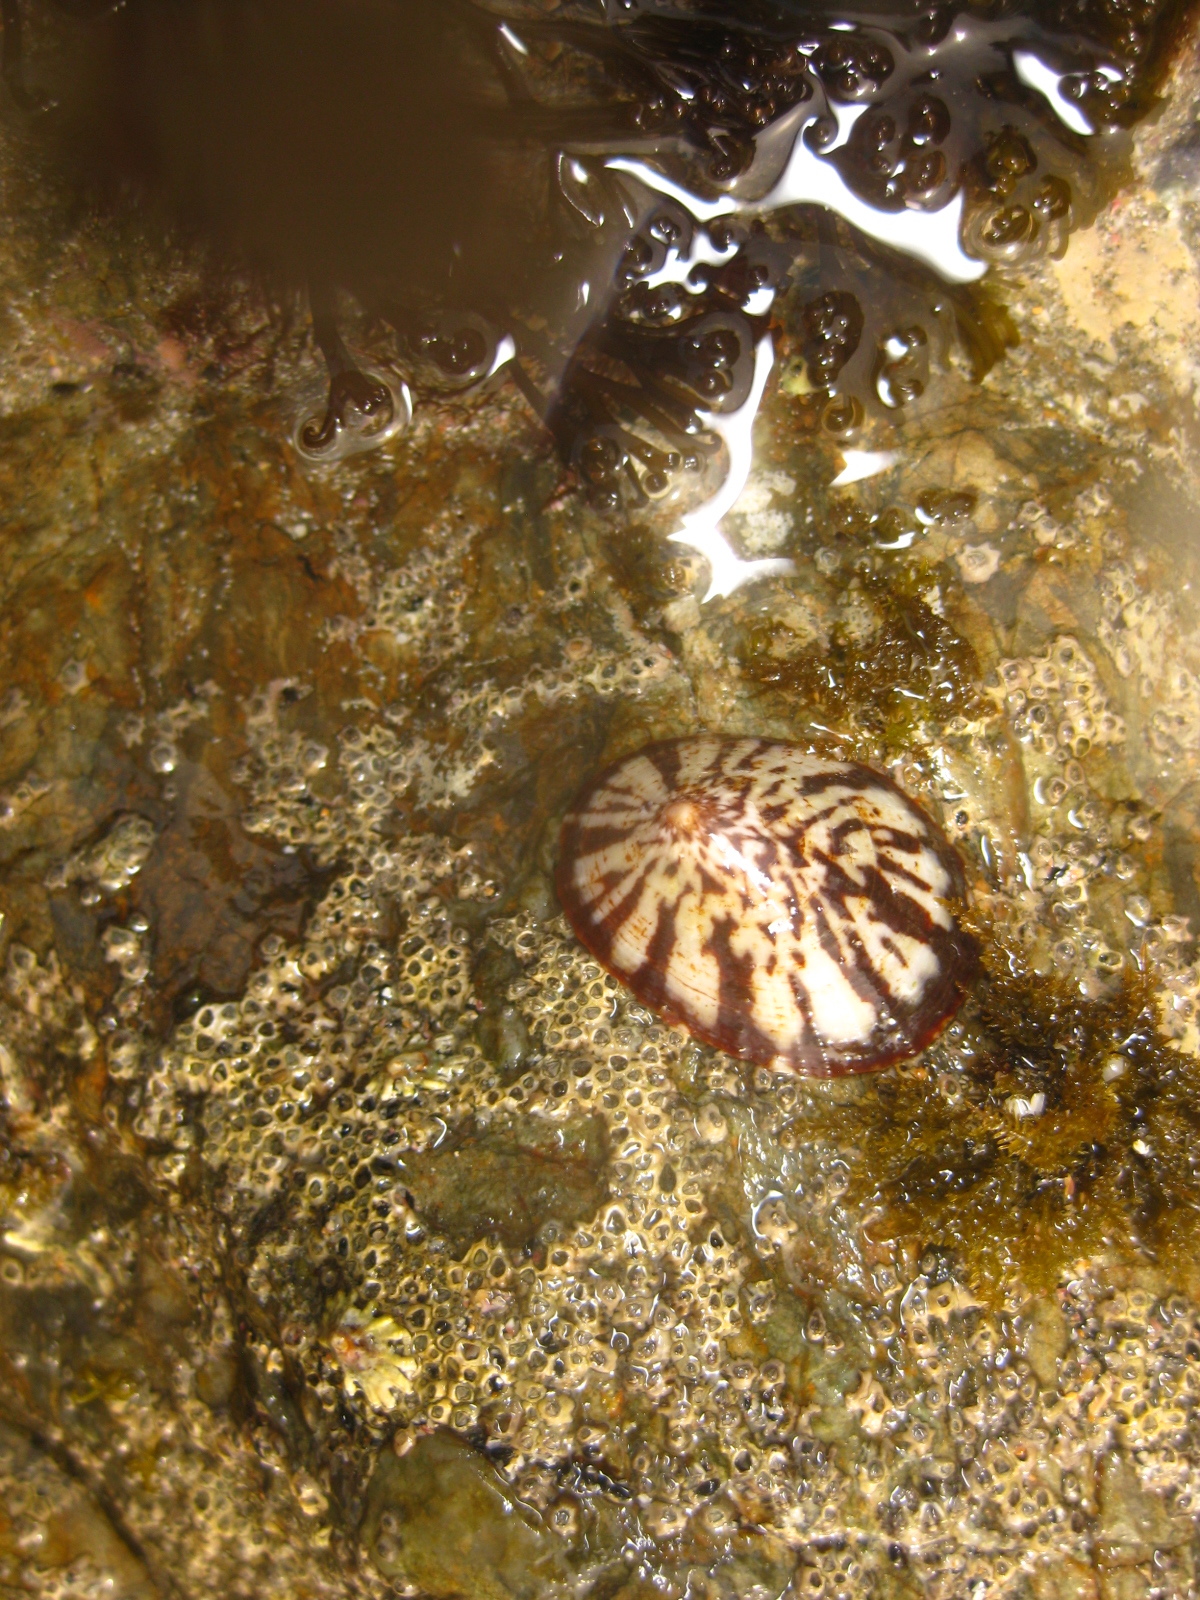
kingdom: Animalia
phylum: Mollusca
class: Gastropoda
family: Nacellidae
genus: Cellana
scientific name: Cellana radians
